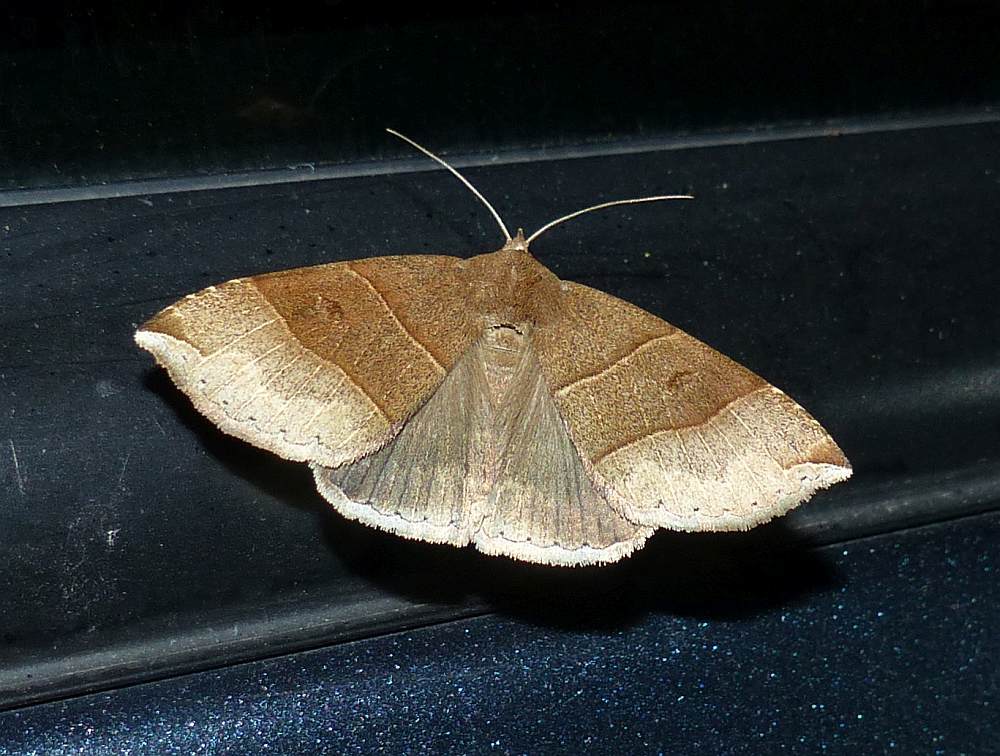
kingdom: Animalia
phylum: Arthropoda
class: Insecta
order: Lepidoptera
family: Erebidae
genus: Parallelia
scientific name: Parallelia bistriaris
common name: Maple looper moth
